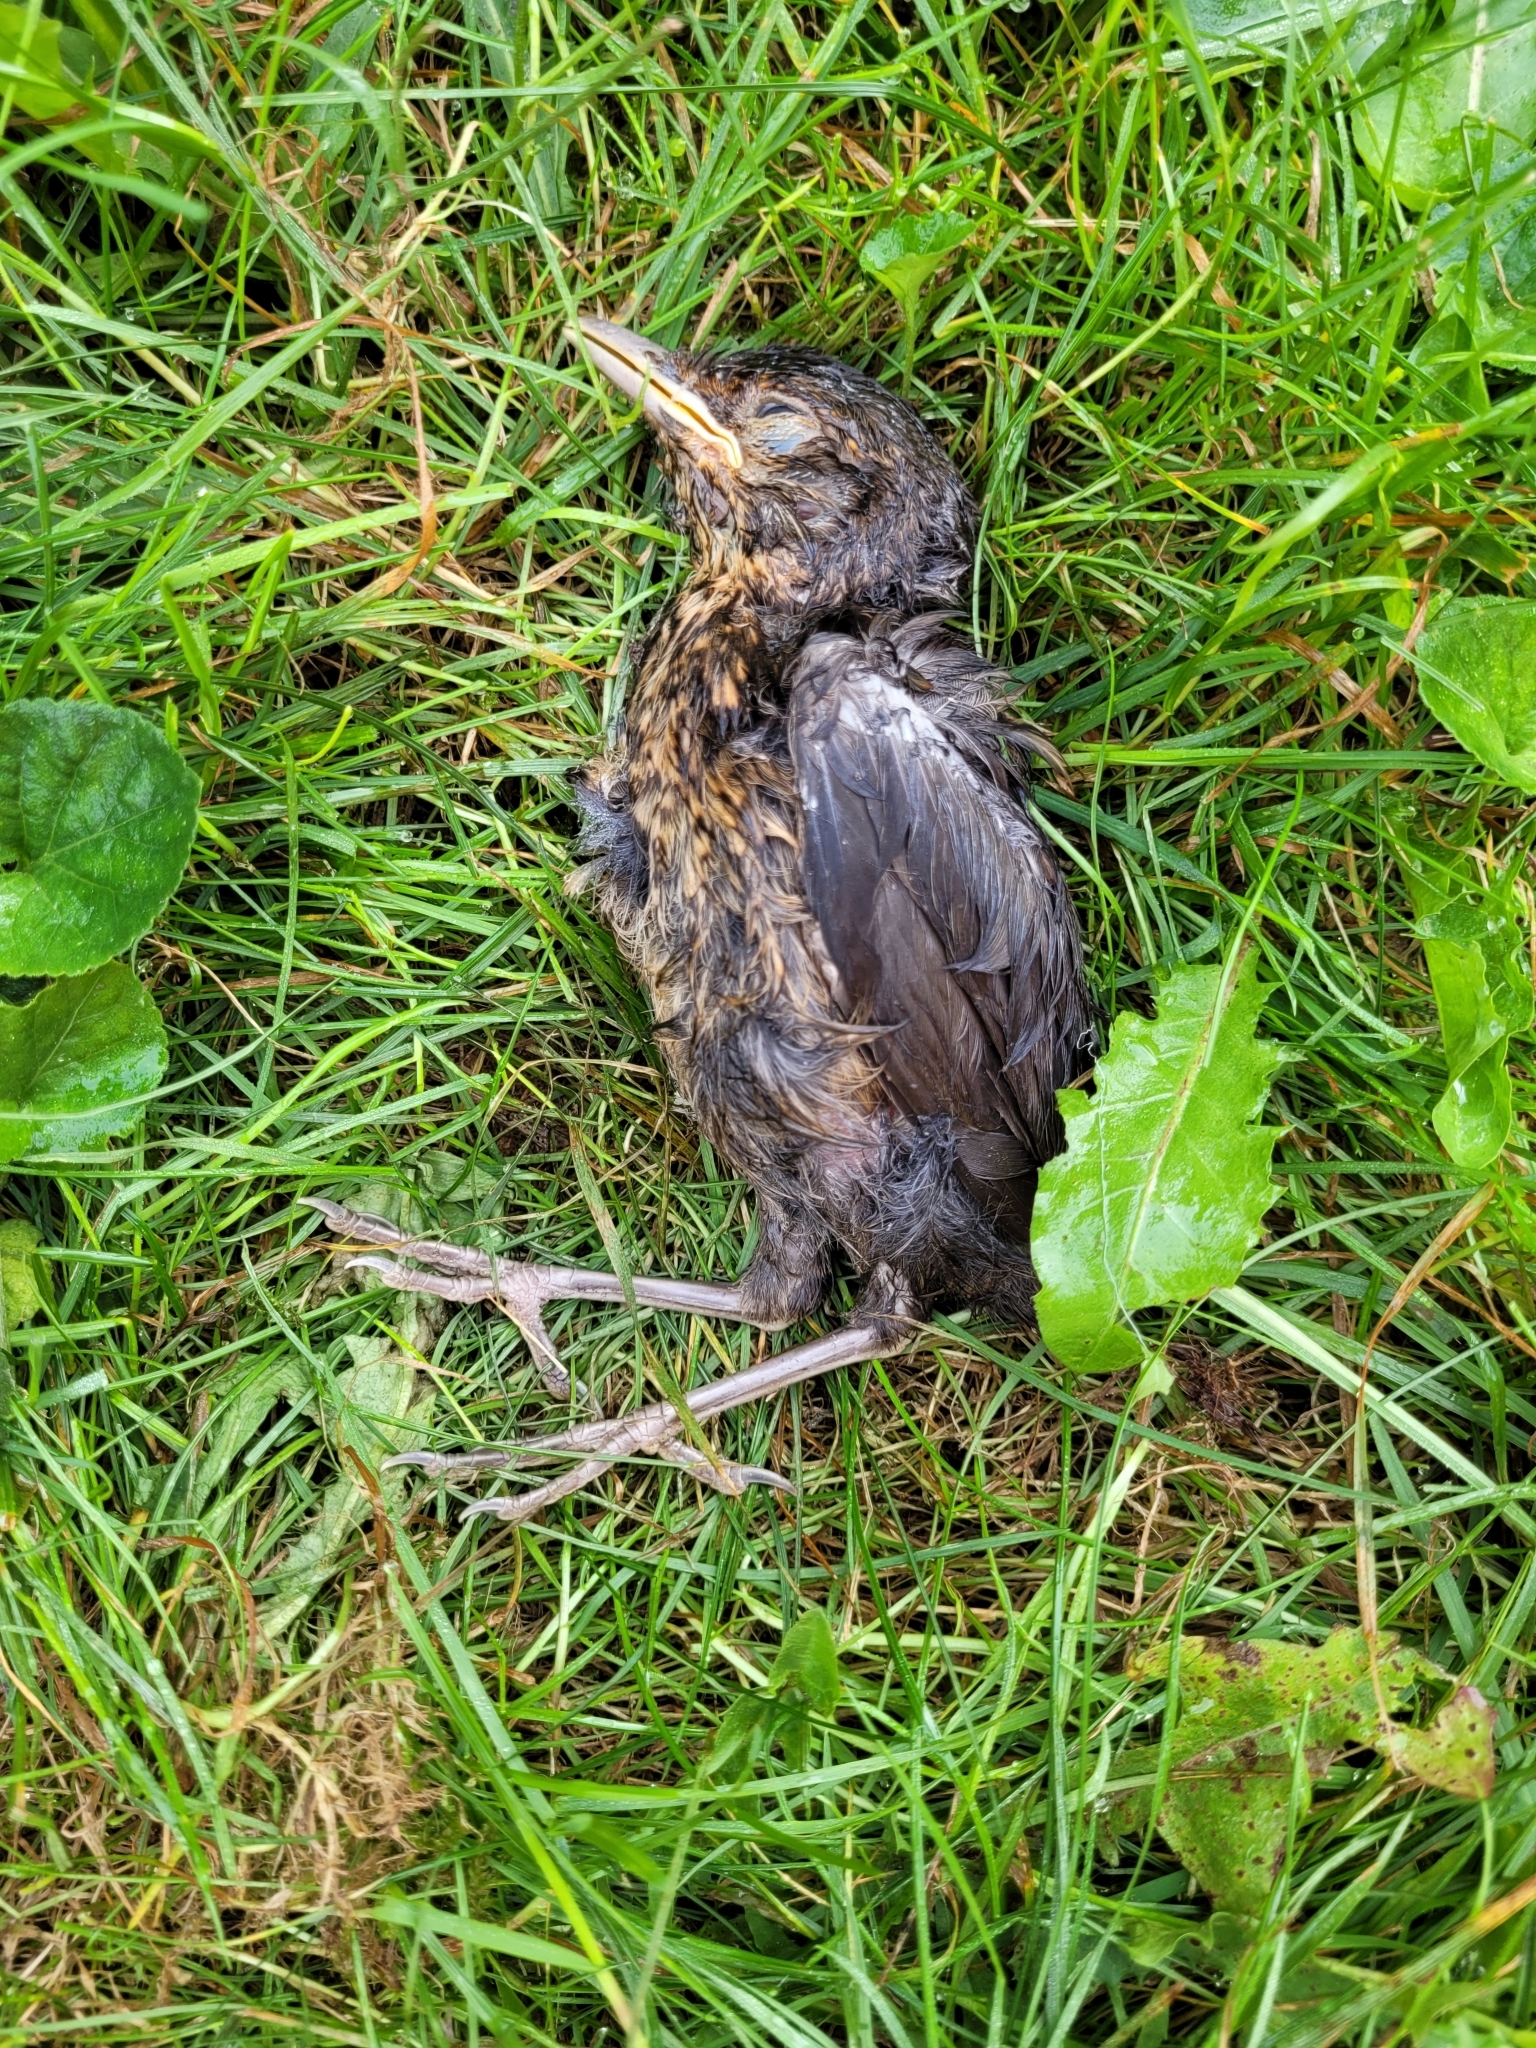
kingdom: Animalia
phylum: Chordata
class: Aves
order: Passeriformes
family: Turdidae
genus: Turdus
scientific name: Turdus merula
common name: Common blackbird
